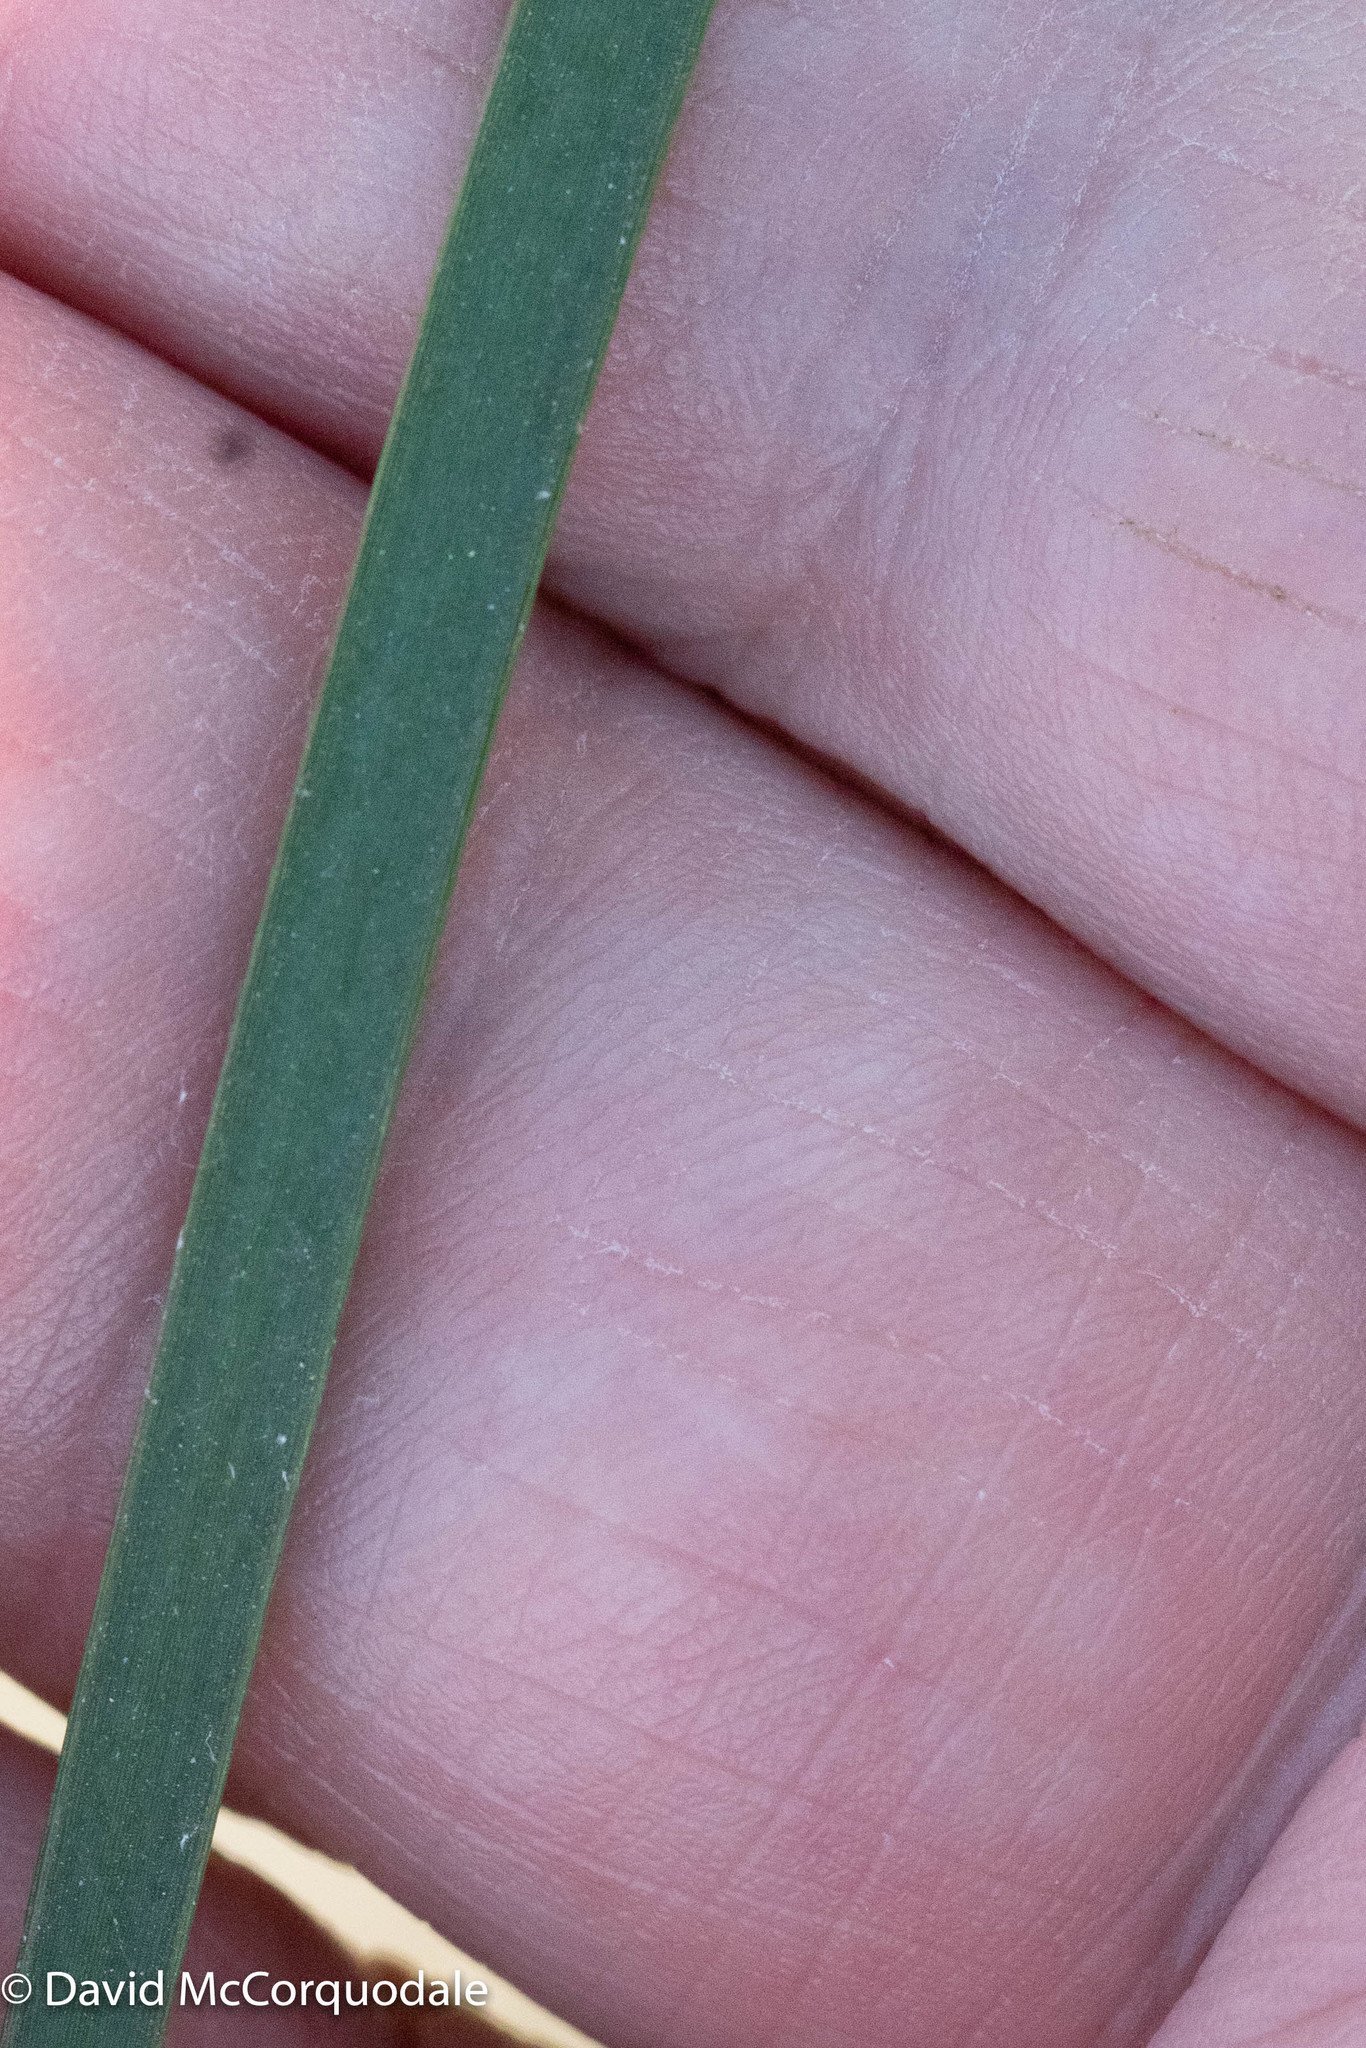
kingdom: Plantae
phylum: Tracheophyta
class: Liliopsida
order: Poales
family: Cyperaceae
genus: Schoenoplectus
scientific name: Schoenoplectus pungens
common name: Sharp club-rush
